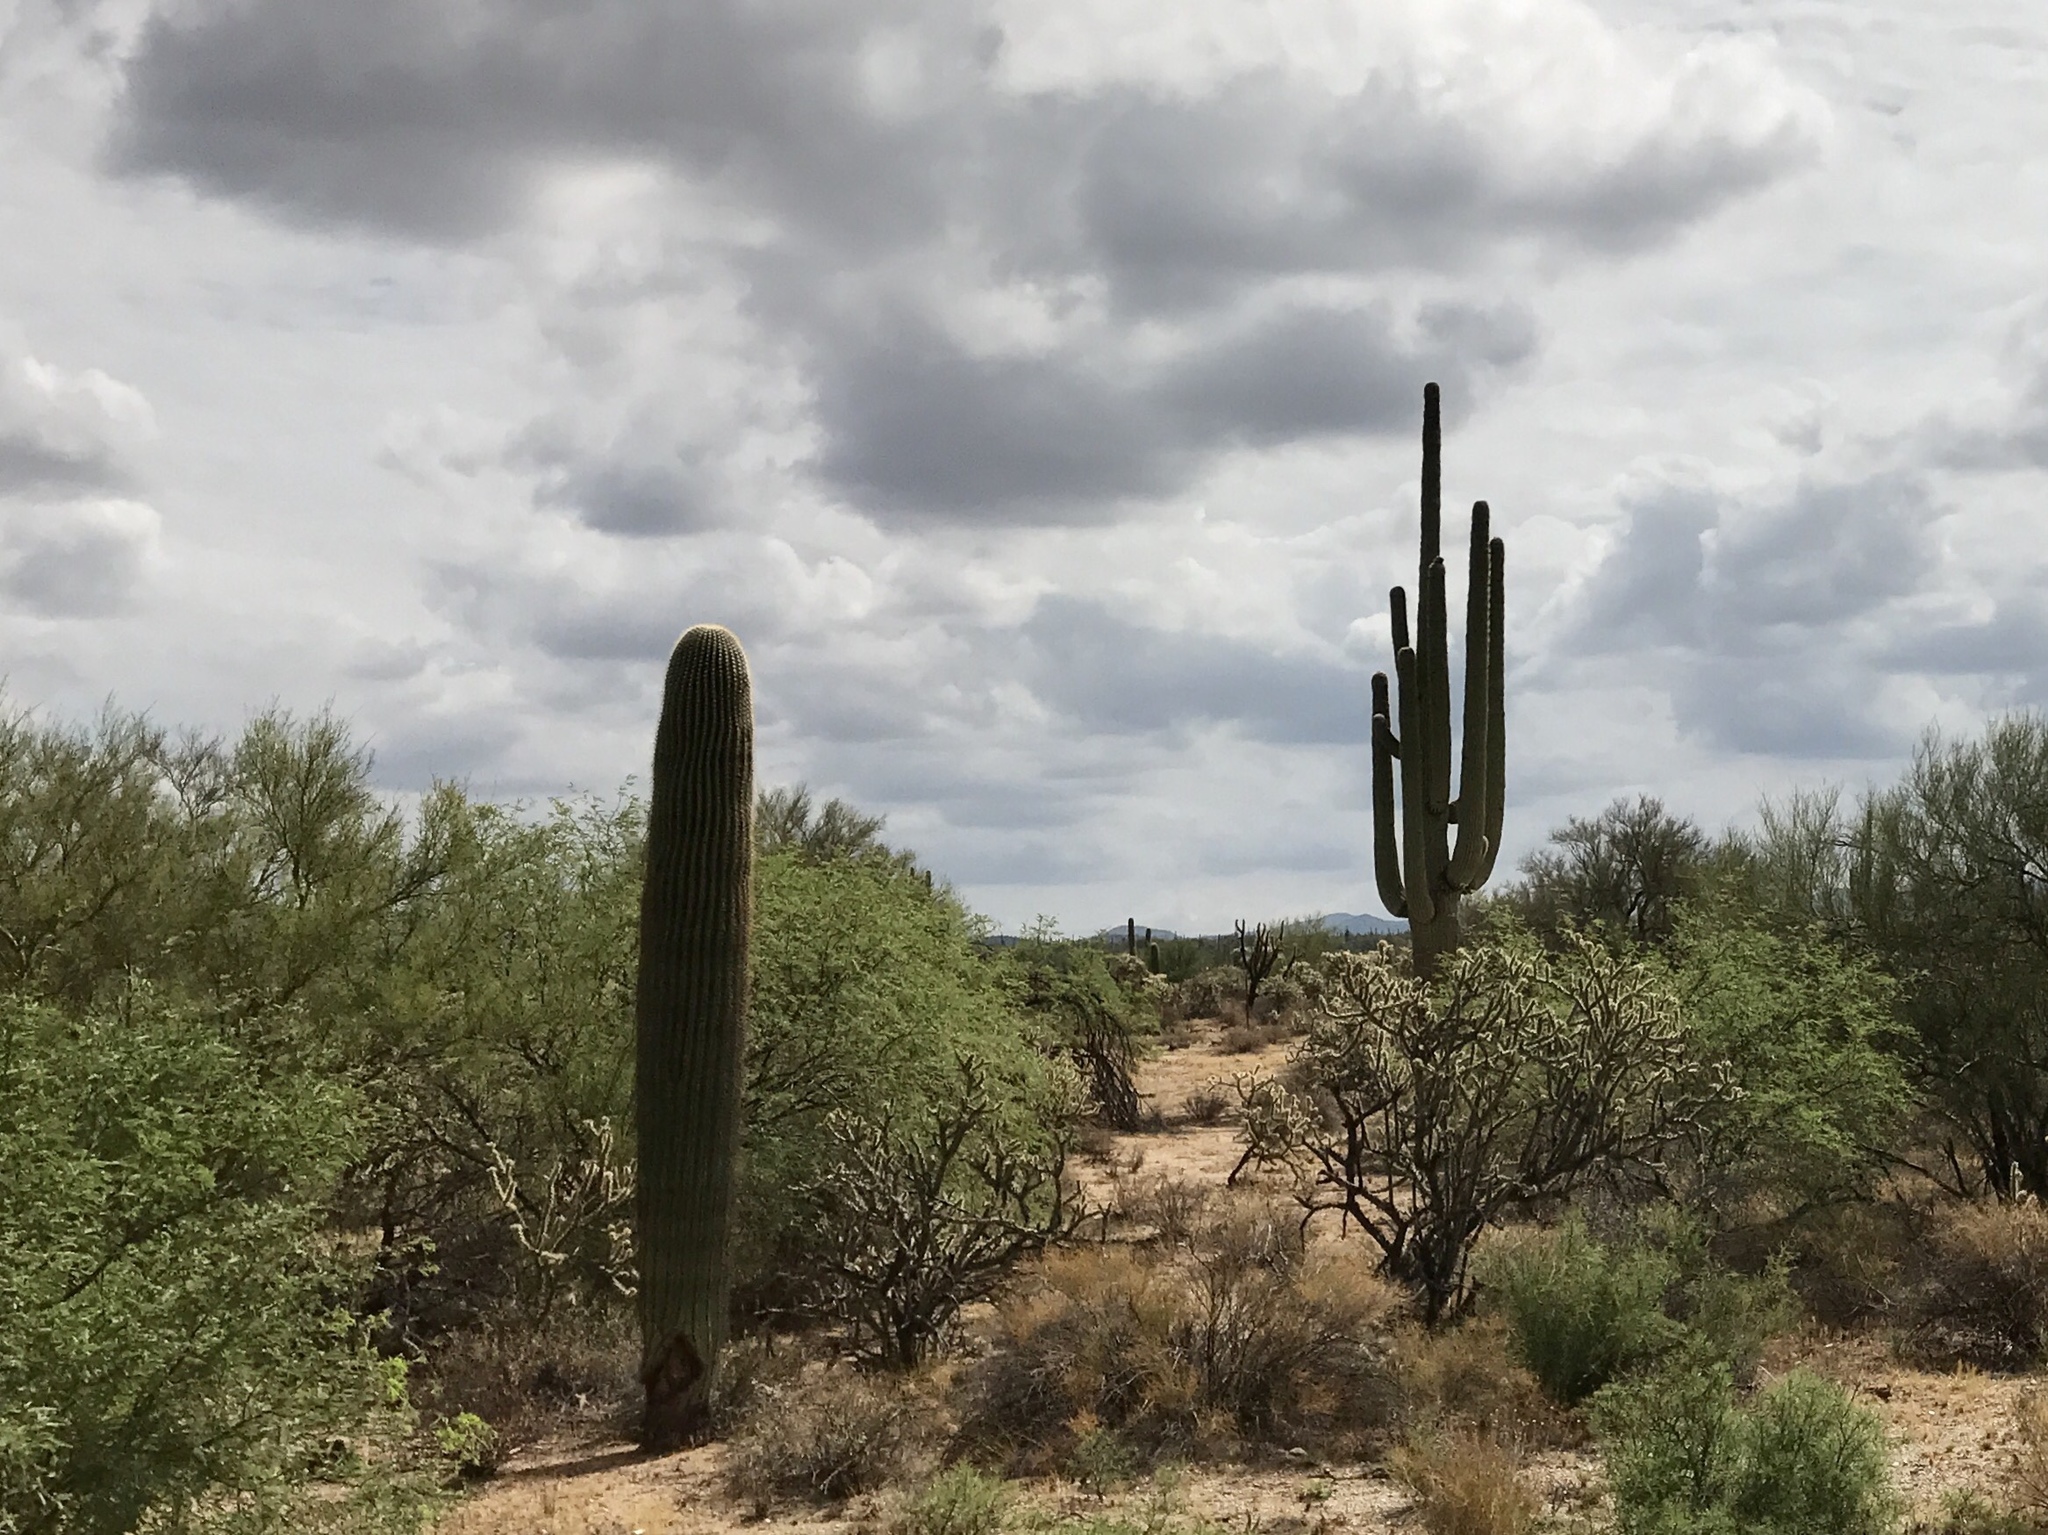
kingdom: Plantae
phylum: Tracheophyta
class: Magnoliopsida
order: Caryophyllales
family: Cactaceae
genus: Carnegiea
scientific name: Carnegiea gigantea
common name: Saguaro
